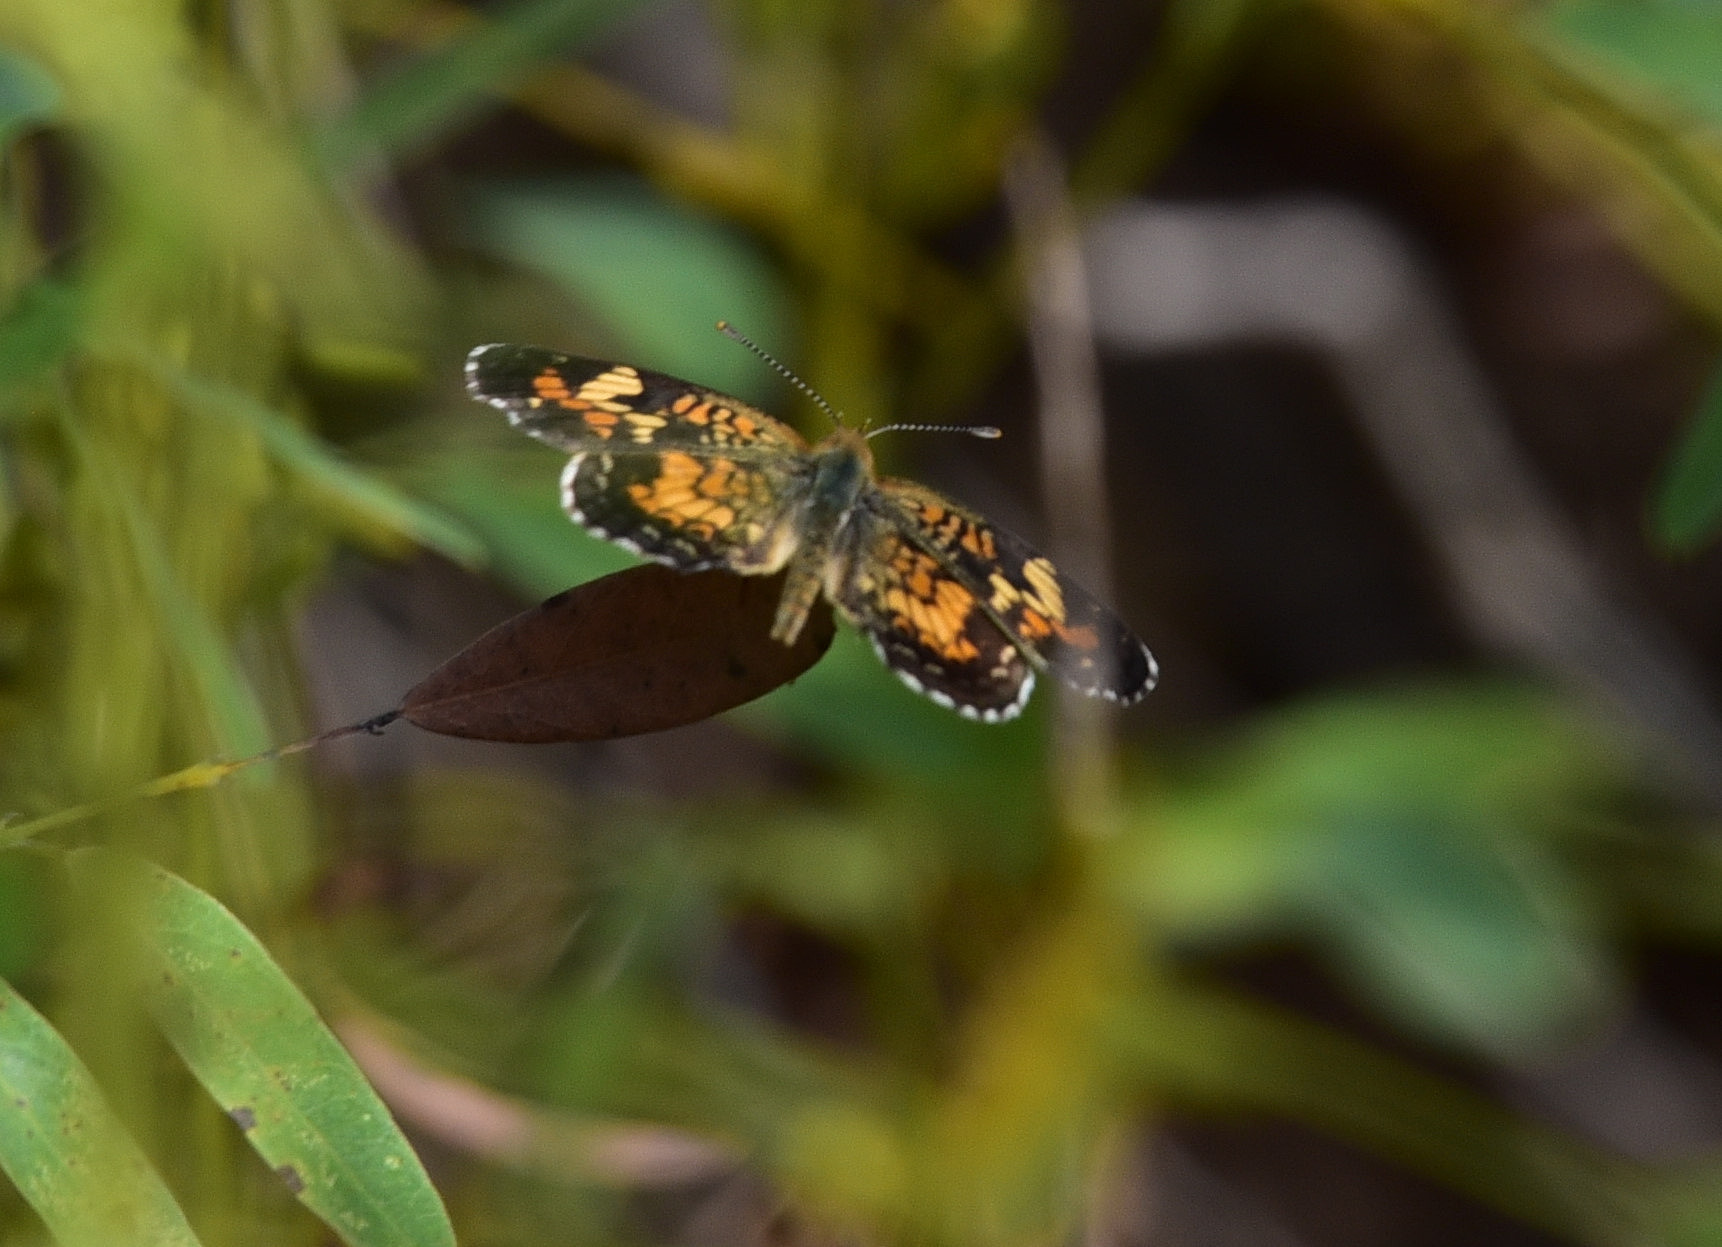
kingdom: Animalia
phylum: Arthropoda
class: Insecta
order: Lepidoptera
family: Nymphalidae
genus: Phyciodes
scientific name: Phyciodes phaon
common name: Phaon crescent
